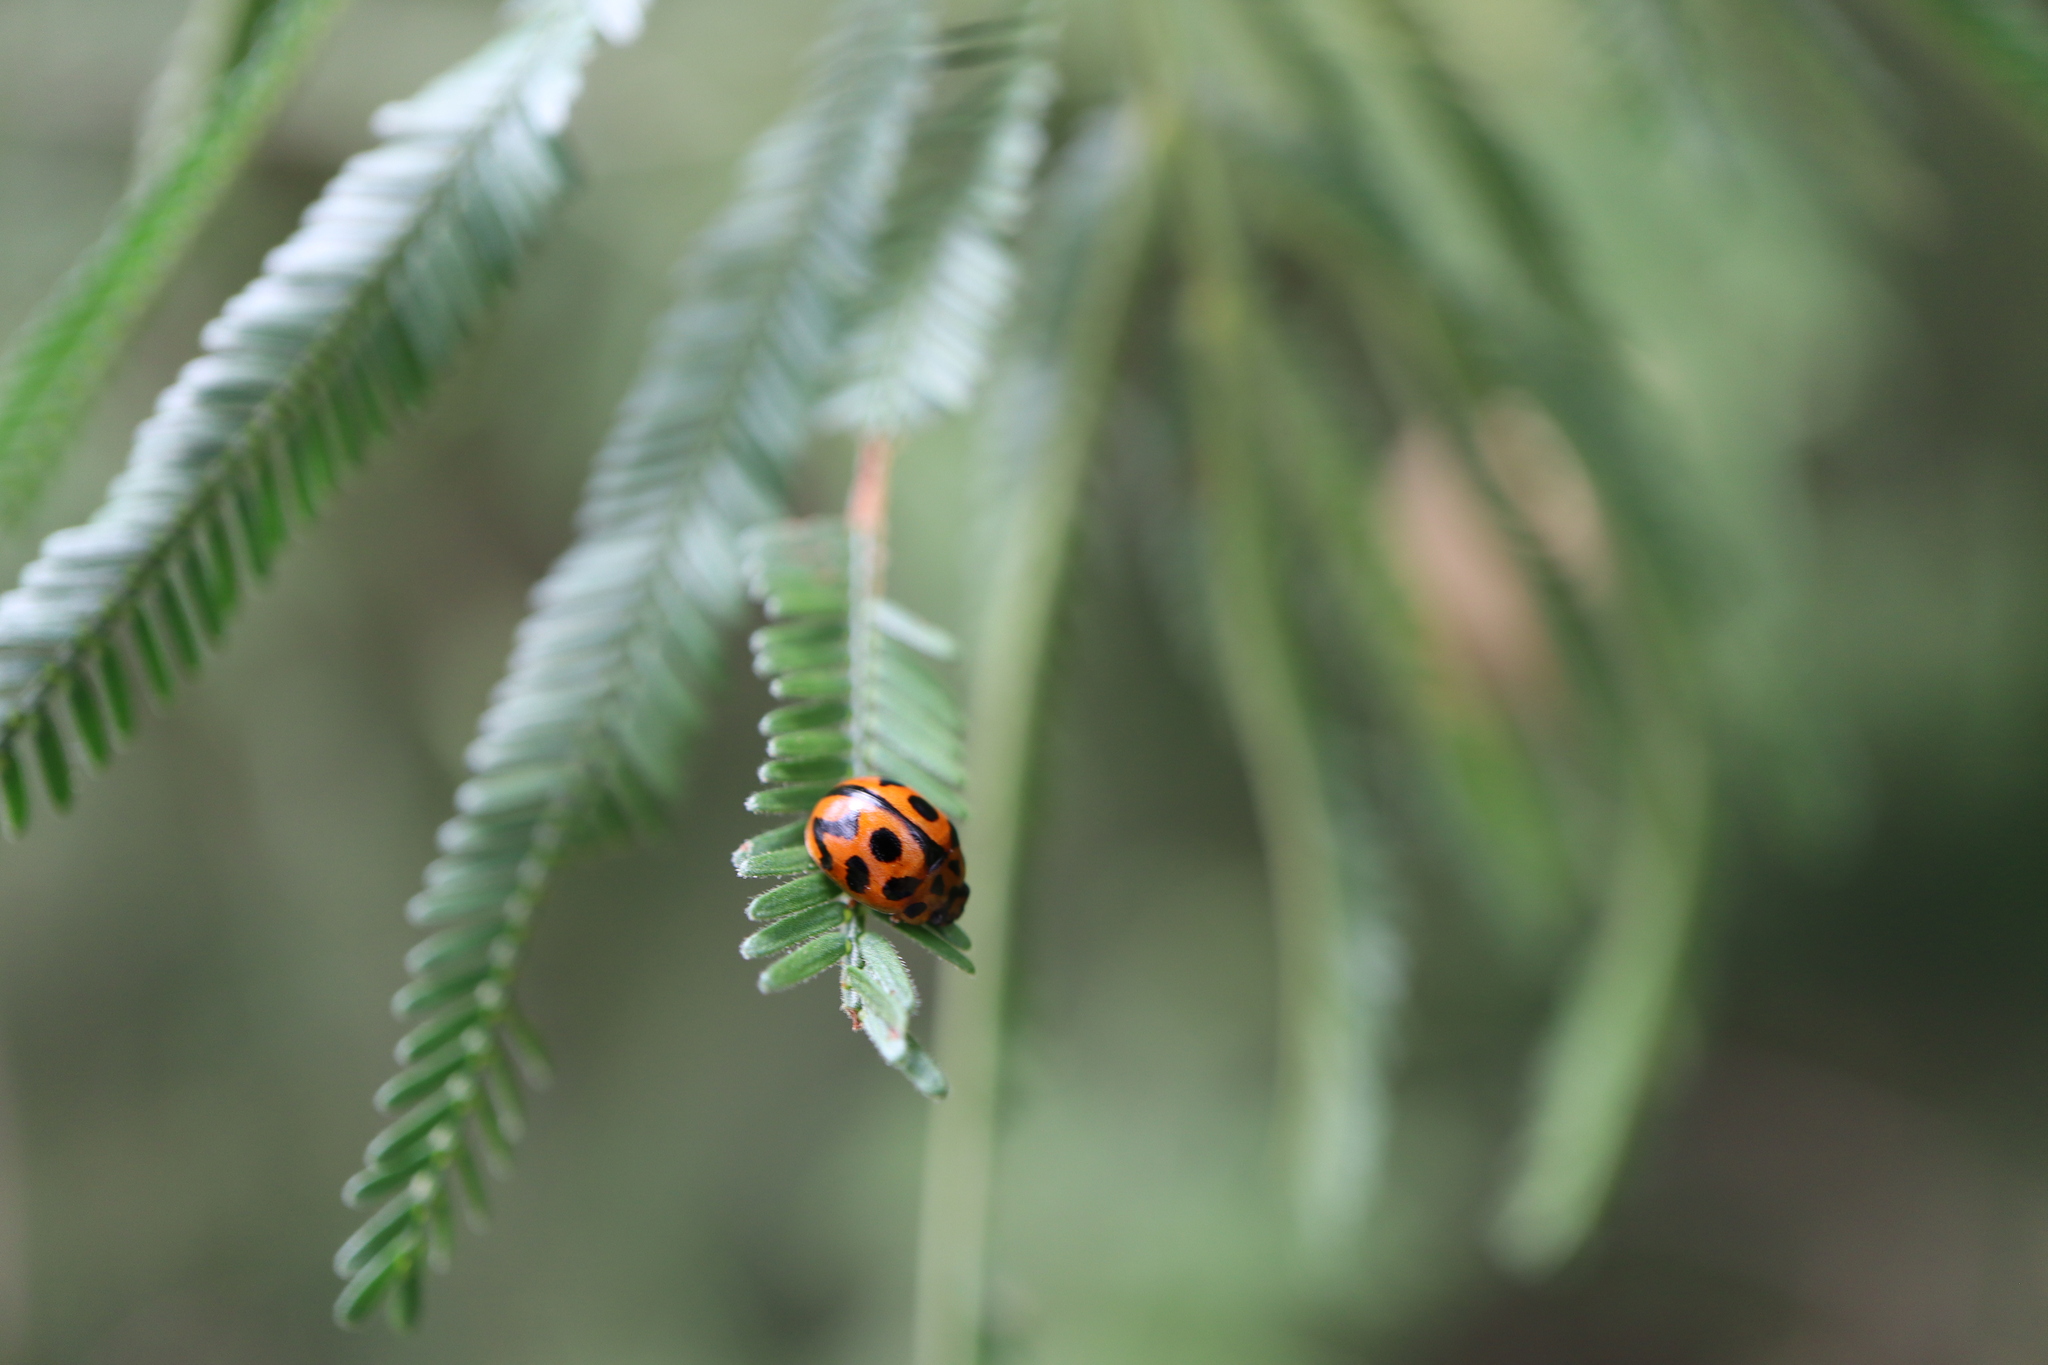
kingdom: Animalia
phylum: Arthropoda
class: Insecta
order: Coleoptera
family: Chrysomelidae
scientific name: Chrysomelidae
